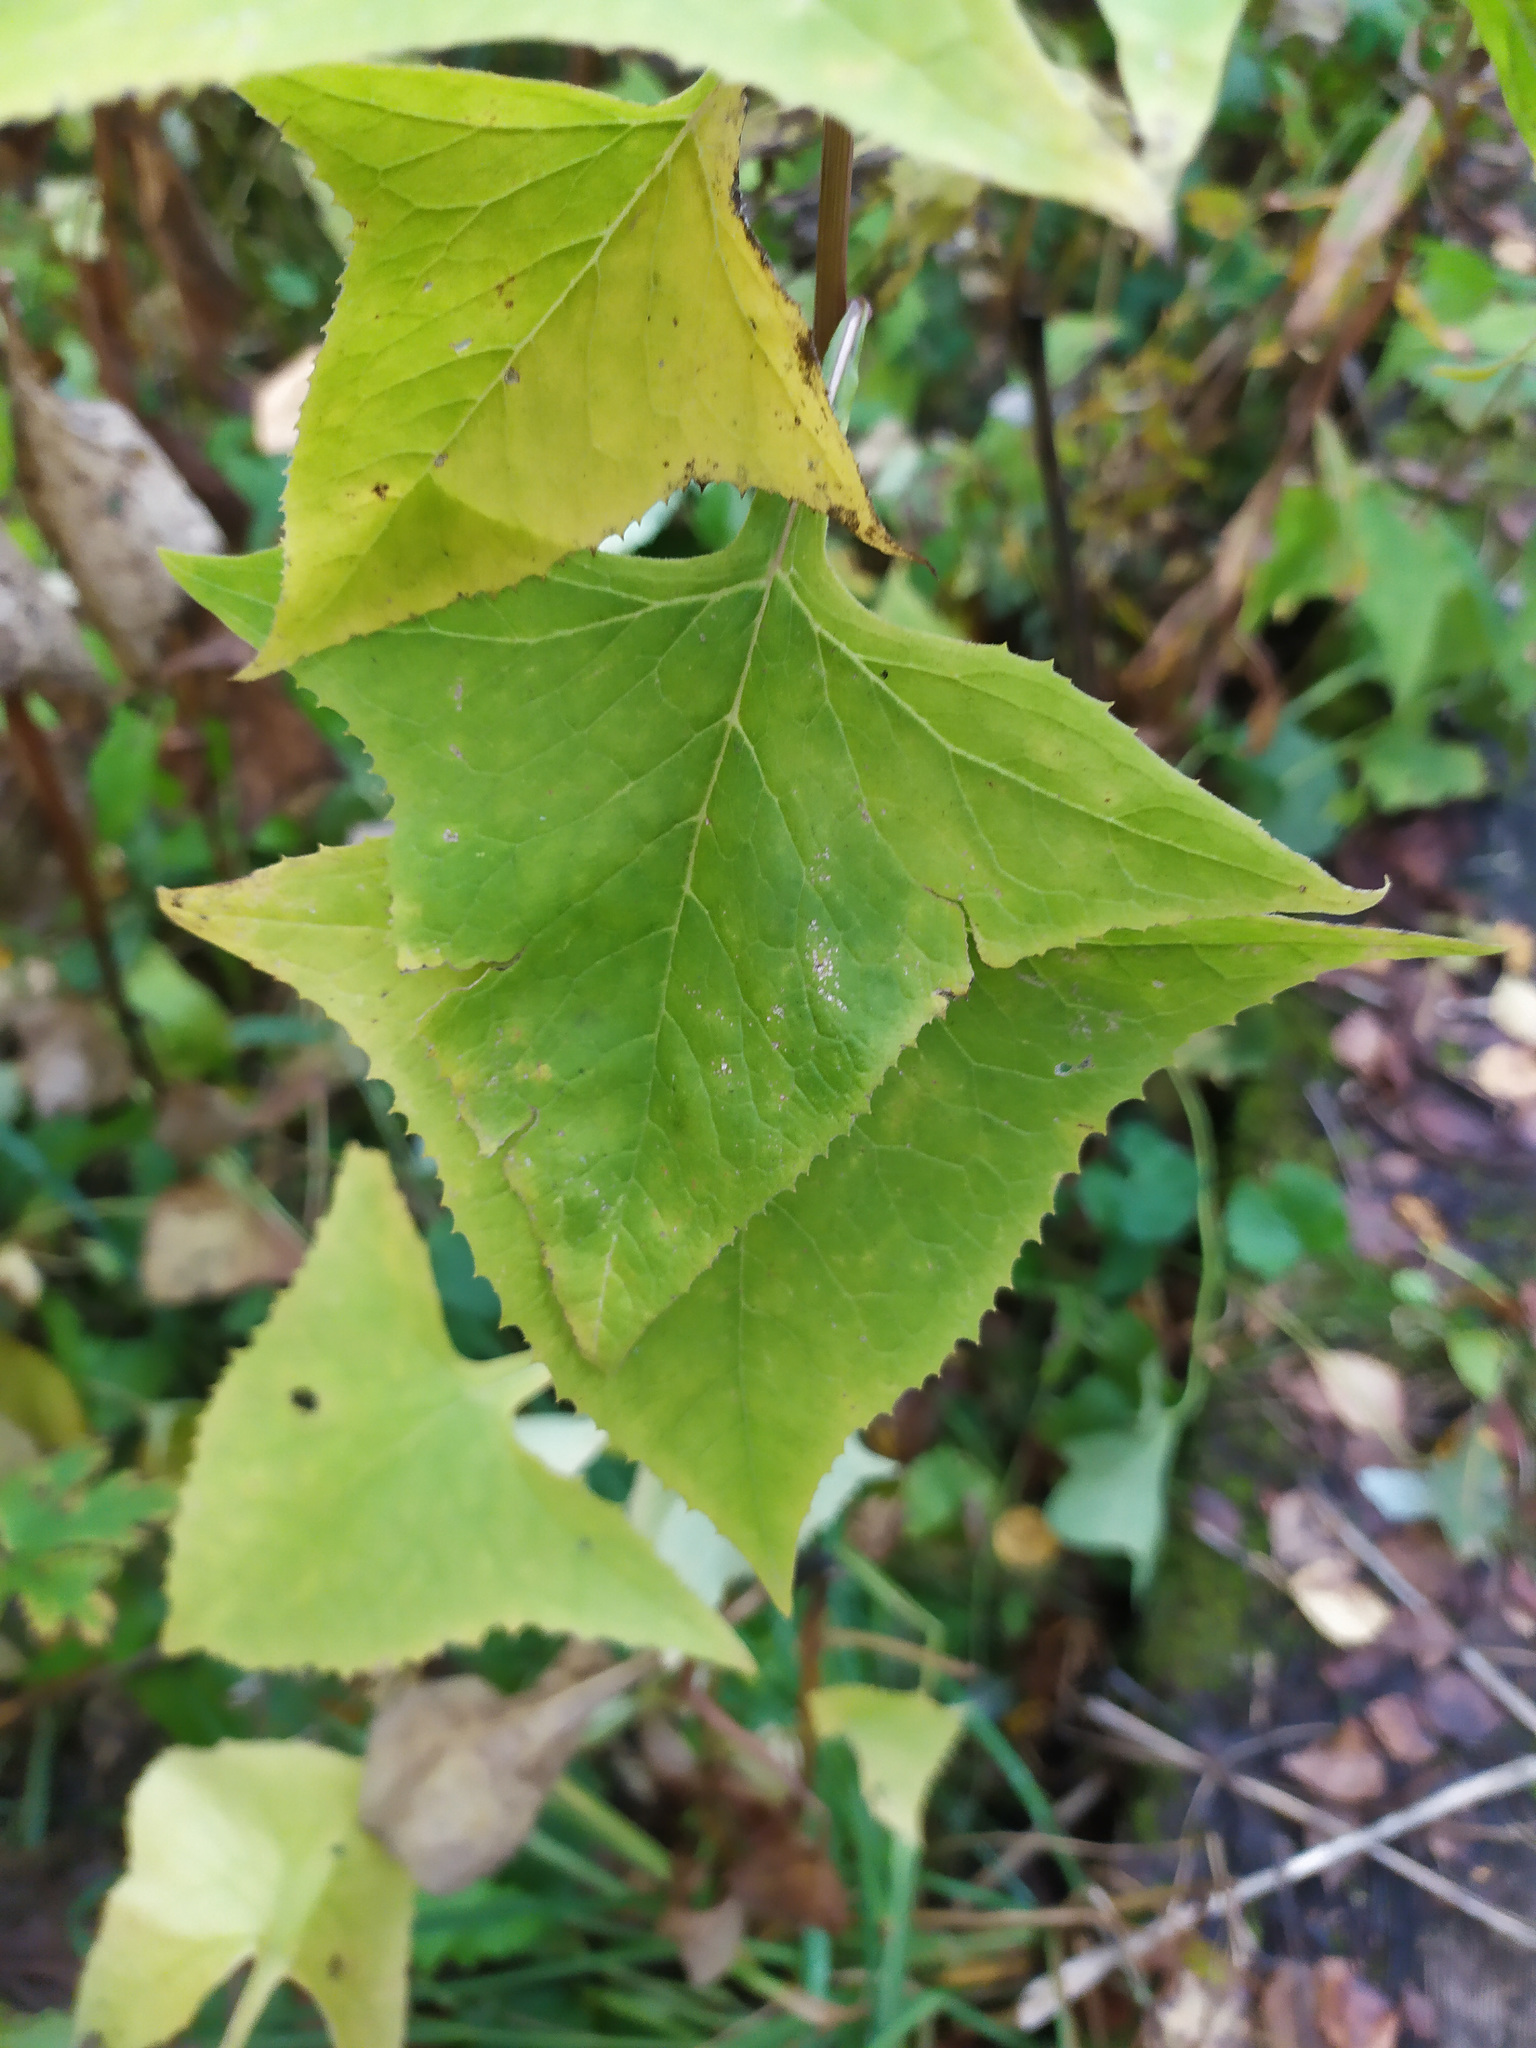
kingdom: Plantae
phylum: Tracheophyta
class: Magnoliopsida
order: Asterales
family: Asteraceae
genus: Parasenecio
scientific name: Parasenecio hastatus
